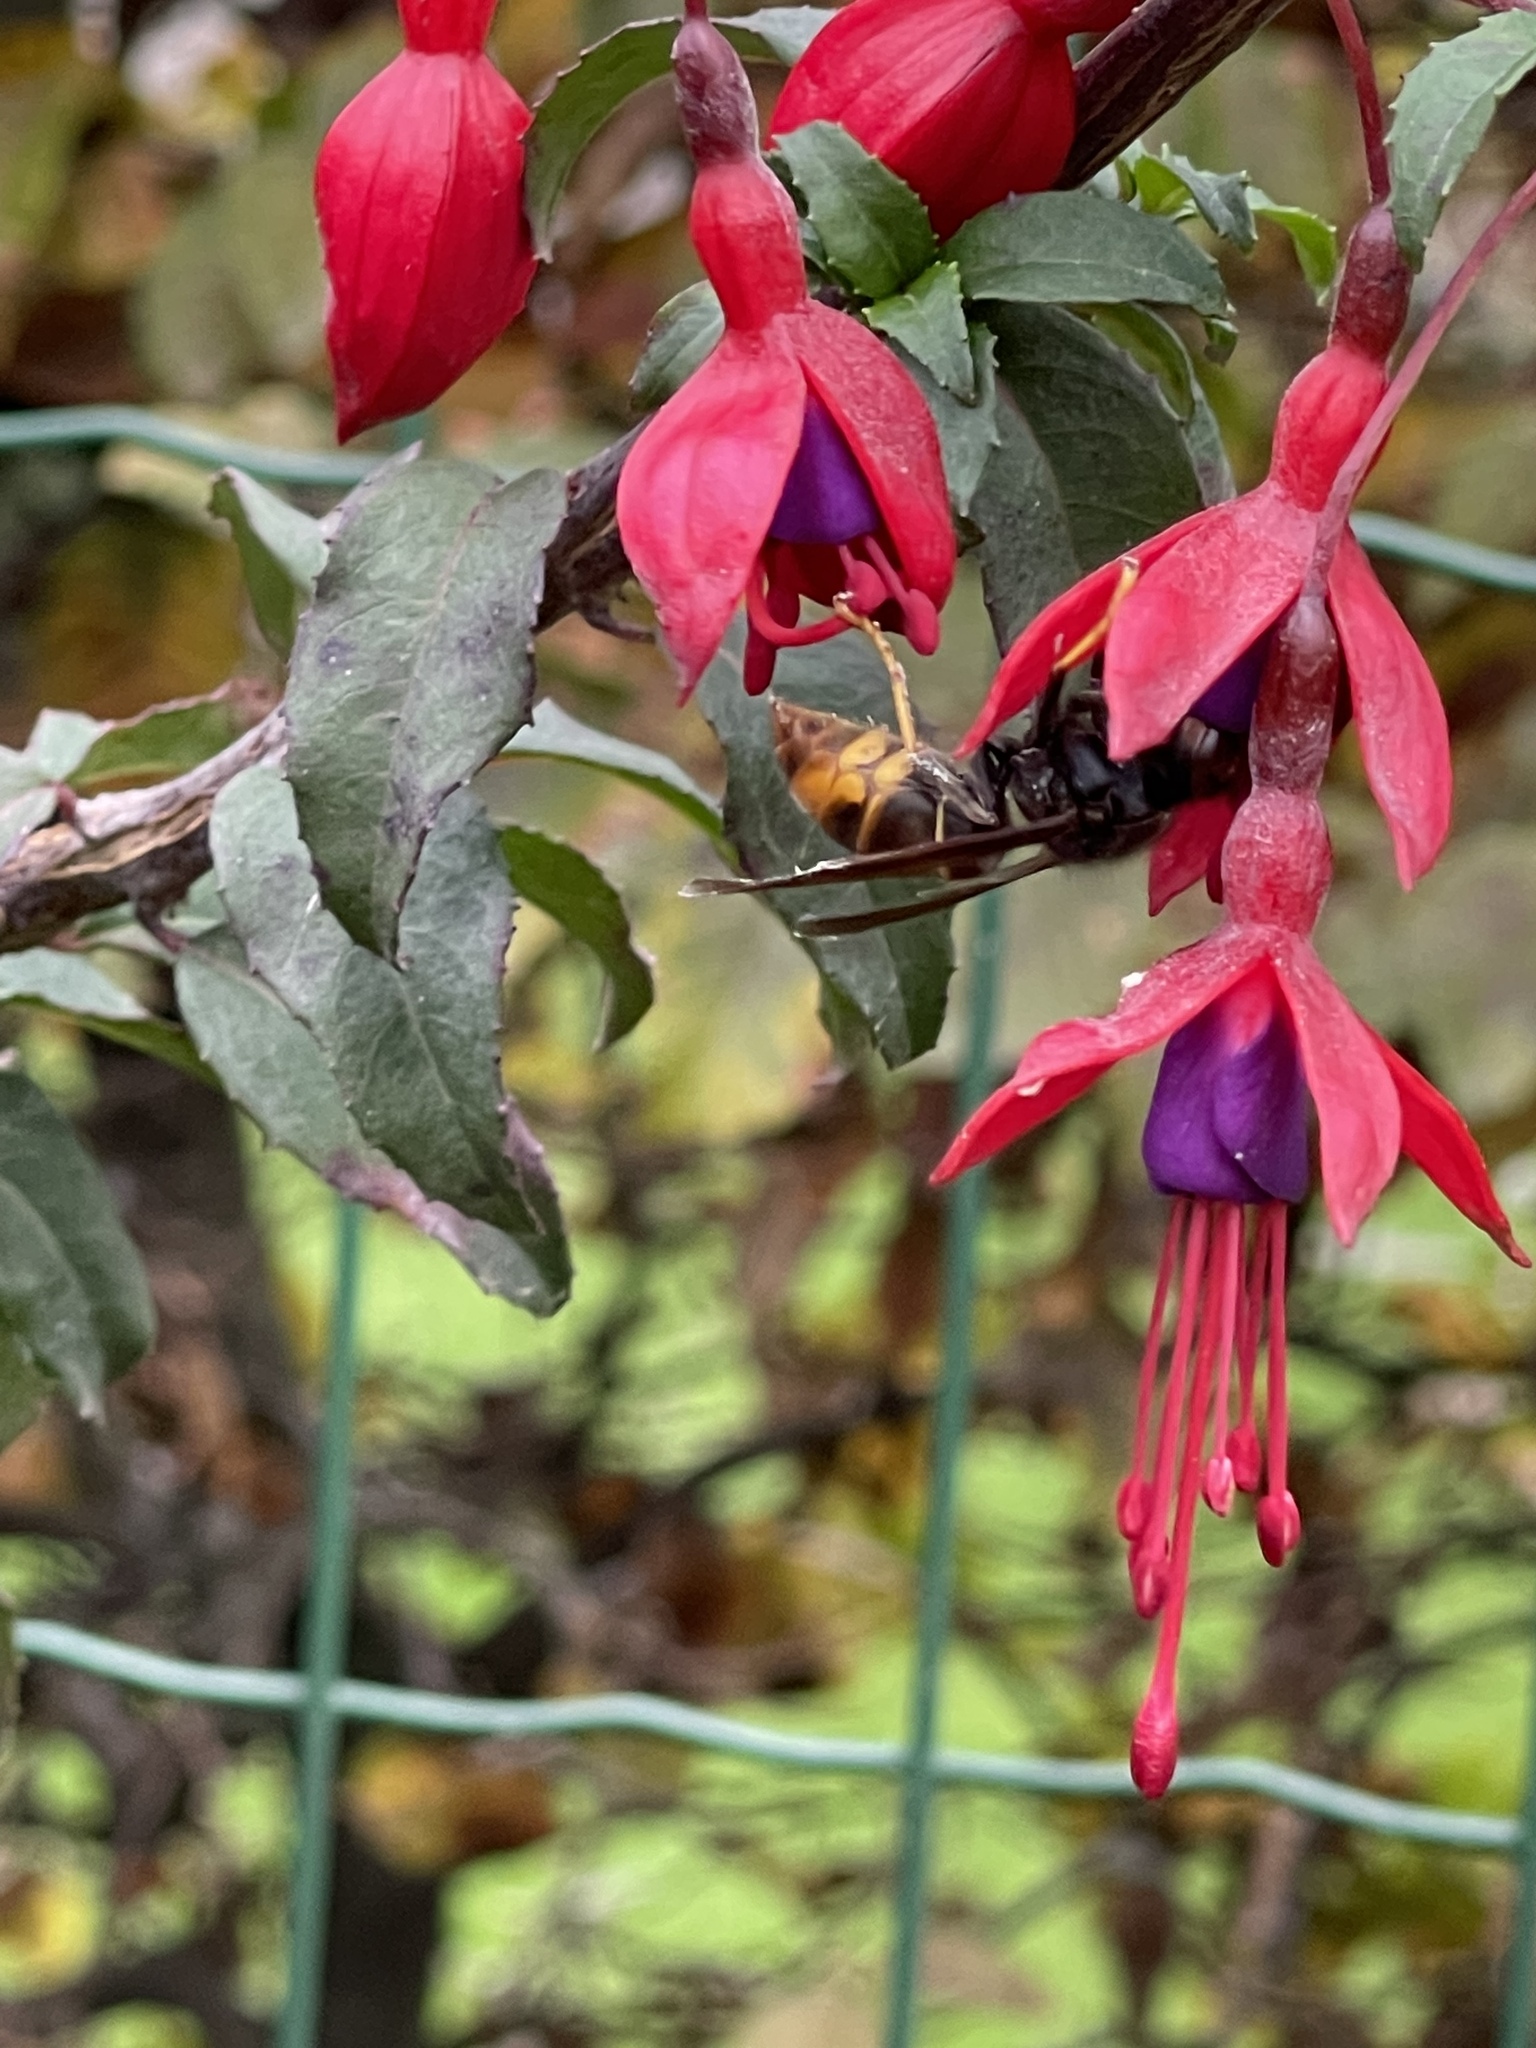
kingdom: Animalia
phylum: Arthropoda
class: Insecta
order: Hymenoptera
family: Vespidae
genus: Vespa
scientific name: Vespa velutina
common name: Asian hornet
